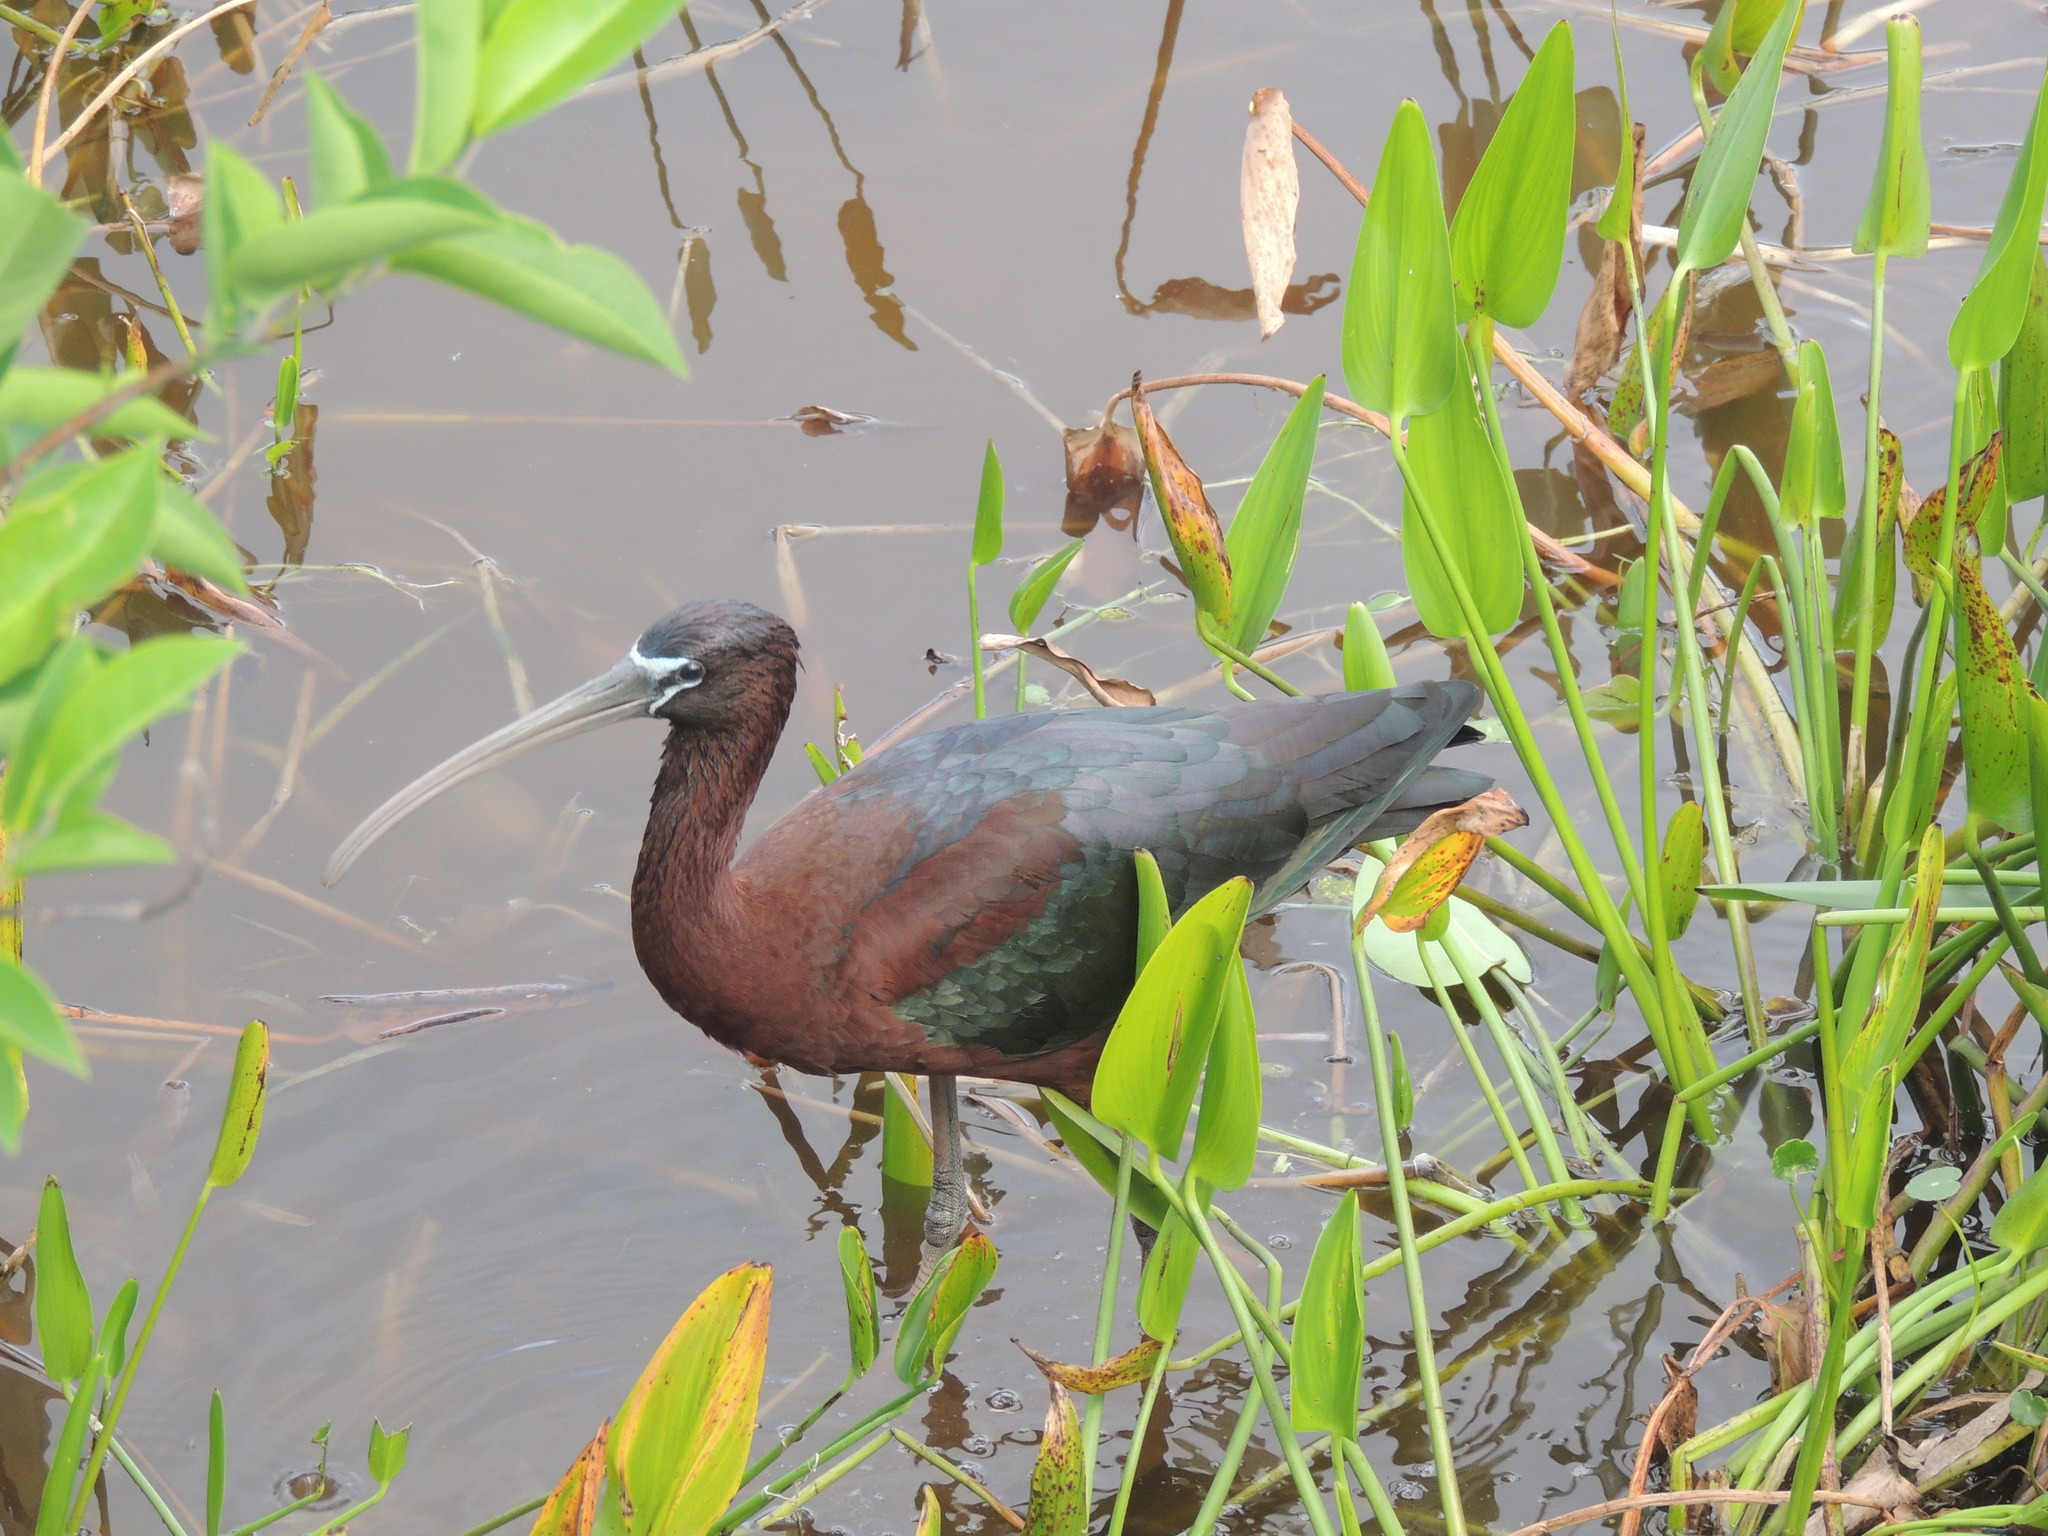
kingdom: Animalia
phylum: Chordata
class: Aves
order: Pelecaniformes
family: Threskiornithidae
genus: Plegadis
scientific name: Plegadis falcinellus
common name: Glossy ibis
